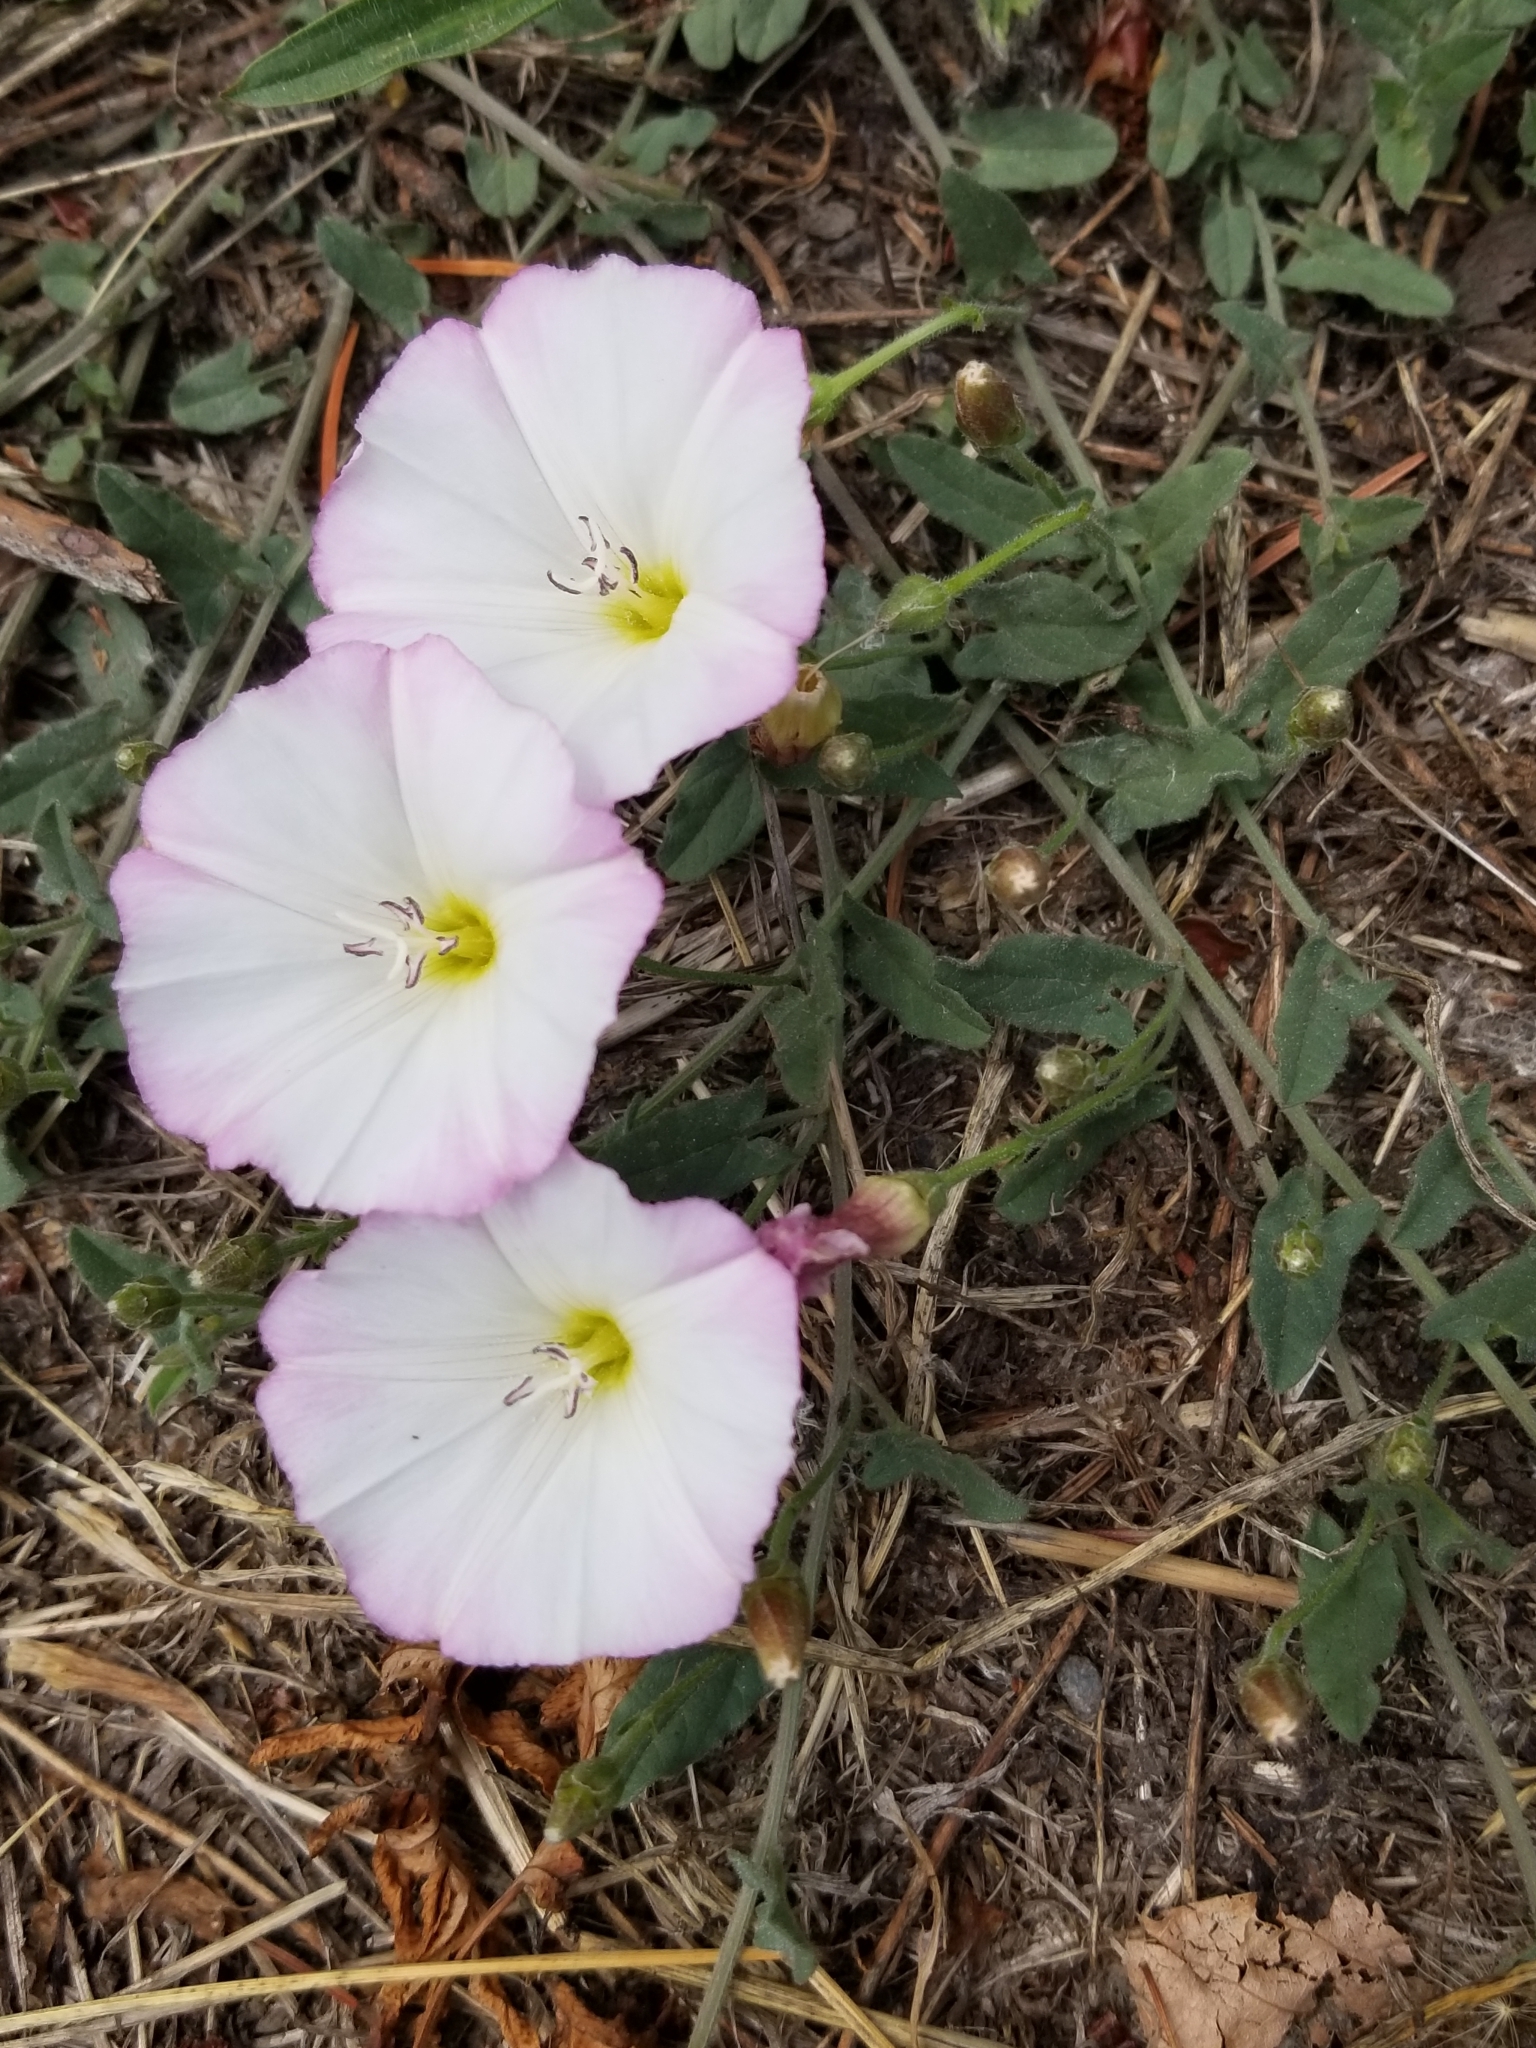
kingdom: Plantae
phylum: Tracheophyta
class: Magnoliopsida
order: Solanales
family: Convolvulaceae
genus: Convolvulus
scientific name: Convolvulus arvensis
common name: Field bindweed
